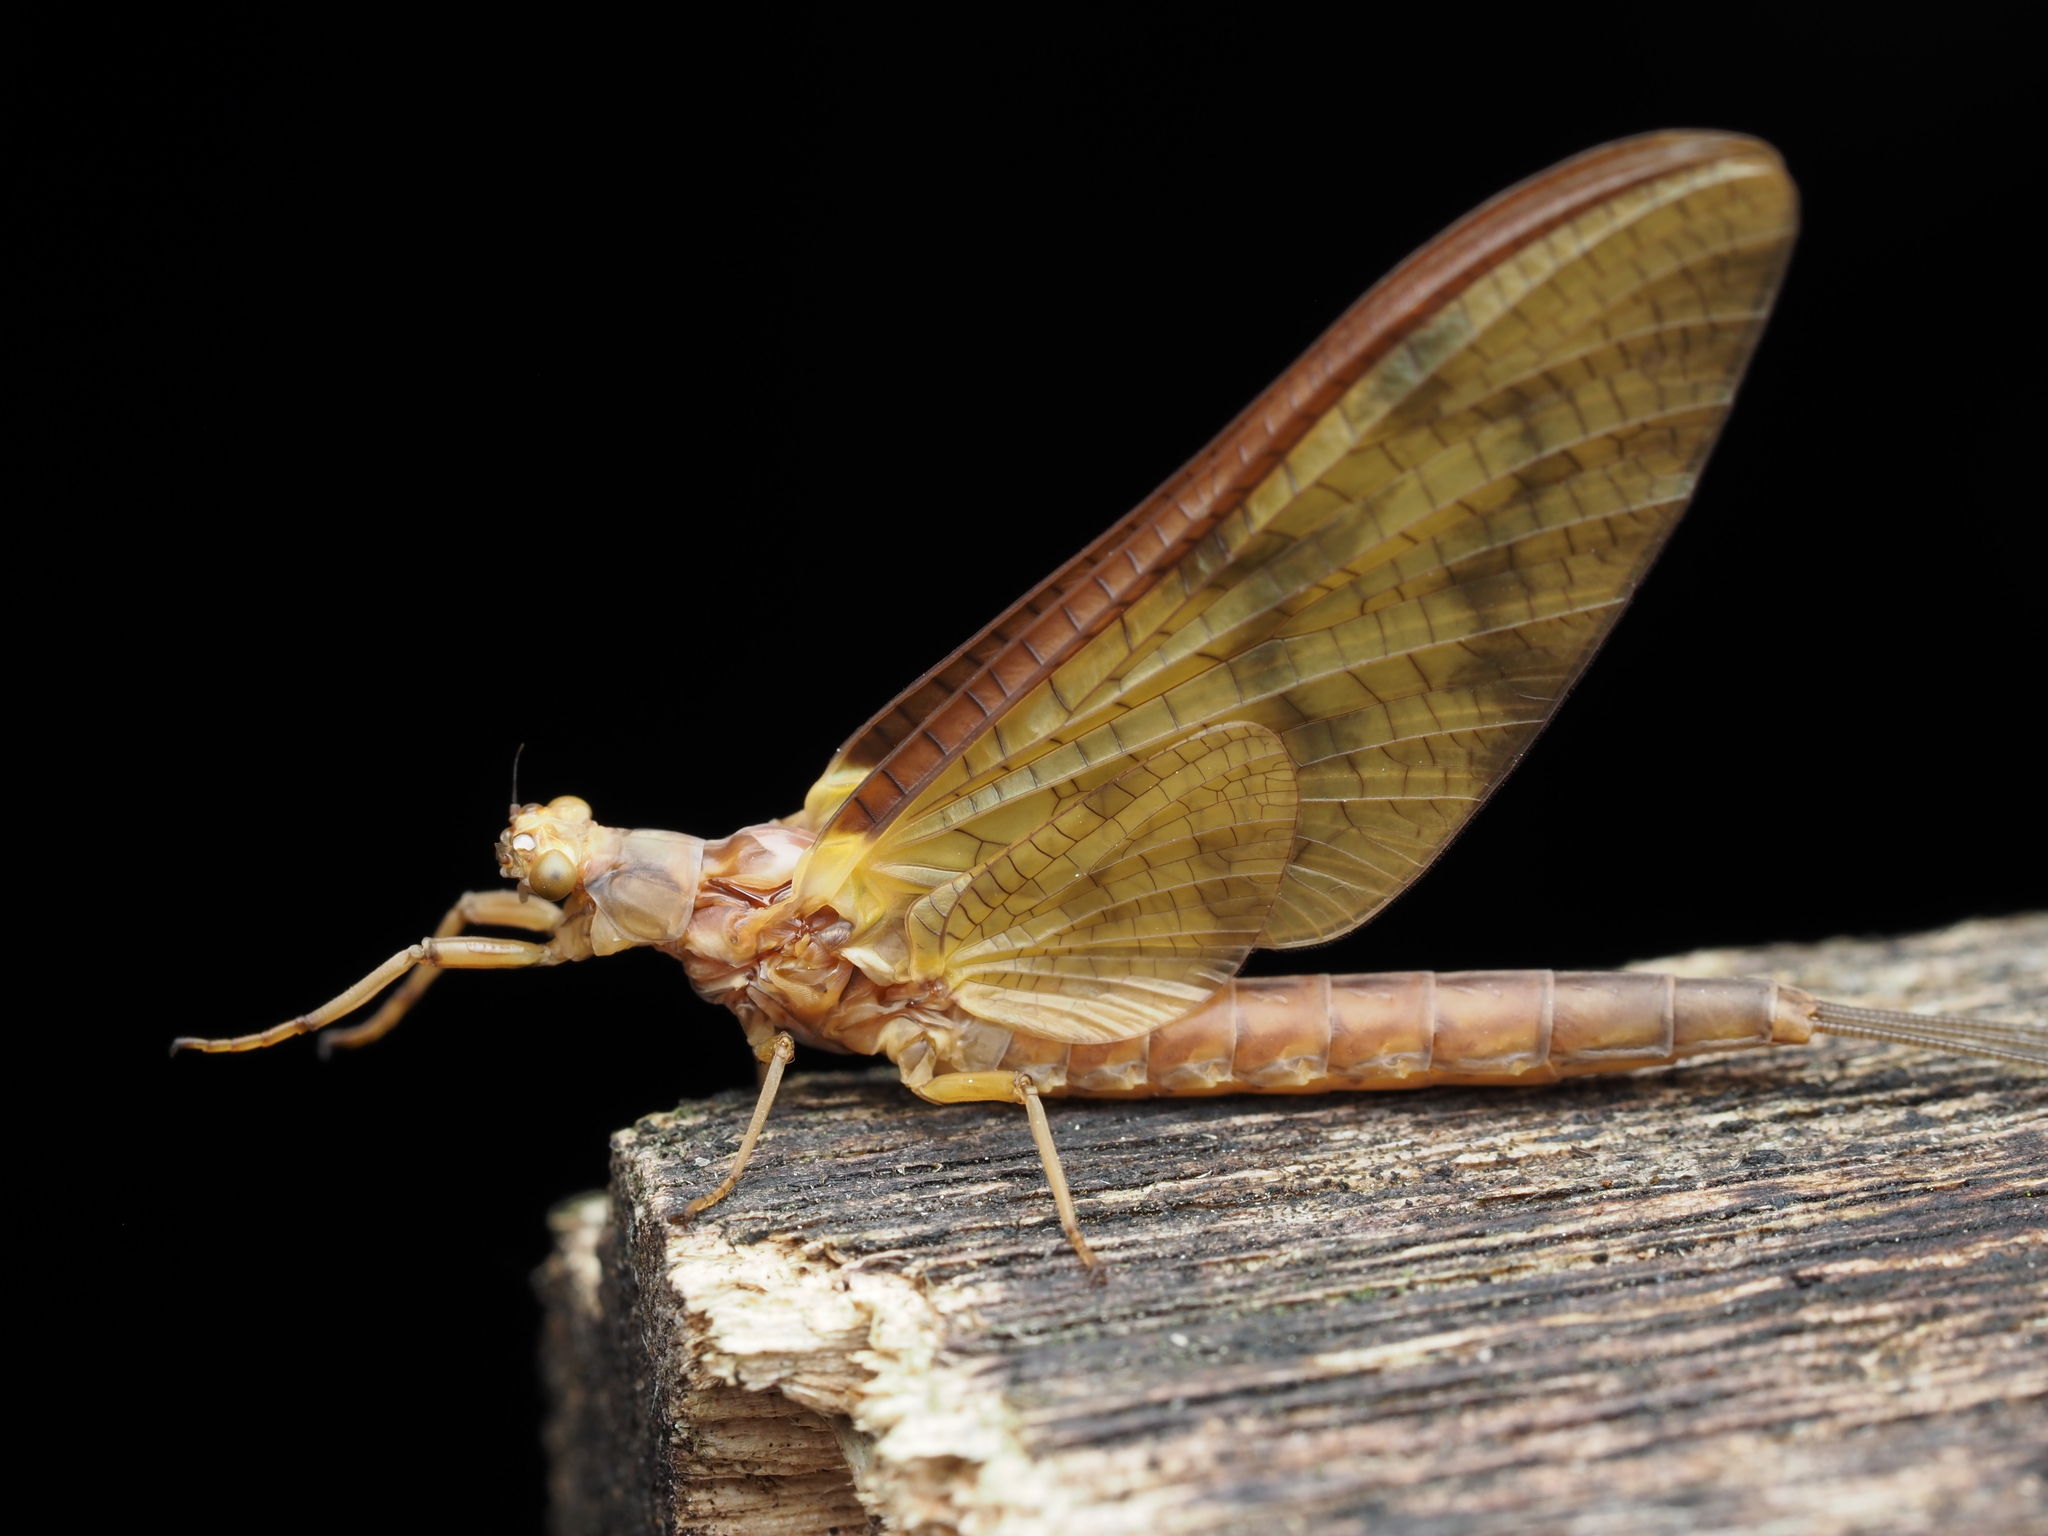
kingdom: Animalia
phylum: Arthropoda
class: Insecta
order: Ephemeroptera
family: Ichthybotidae
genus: Ichthybotus
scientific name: Ichthybotus hudsoni
